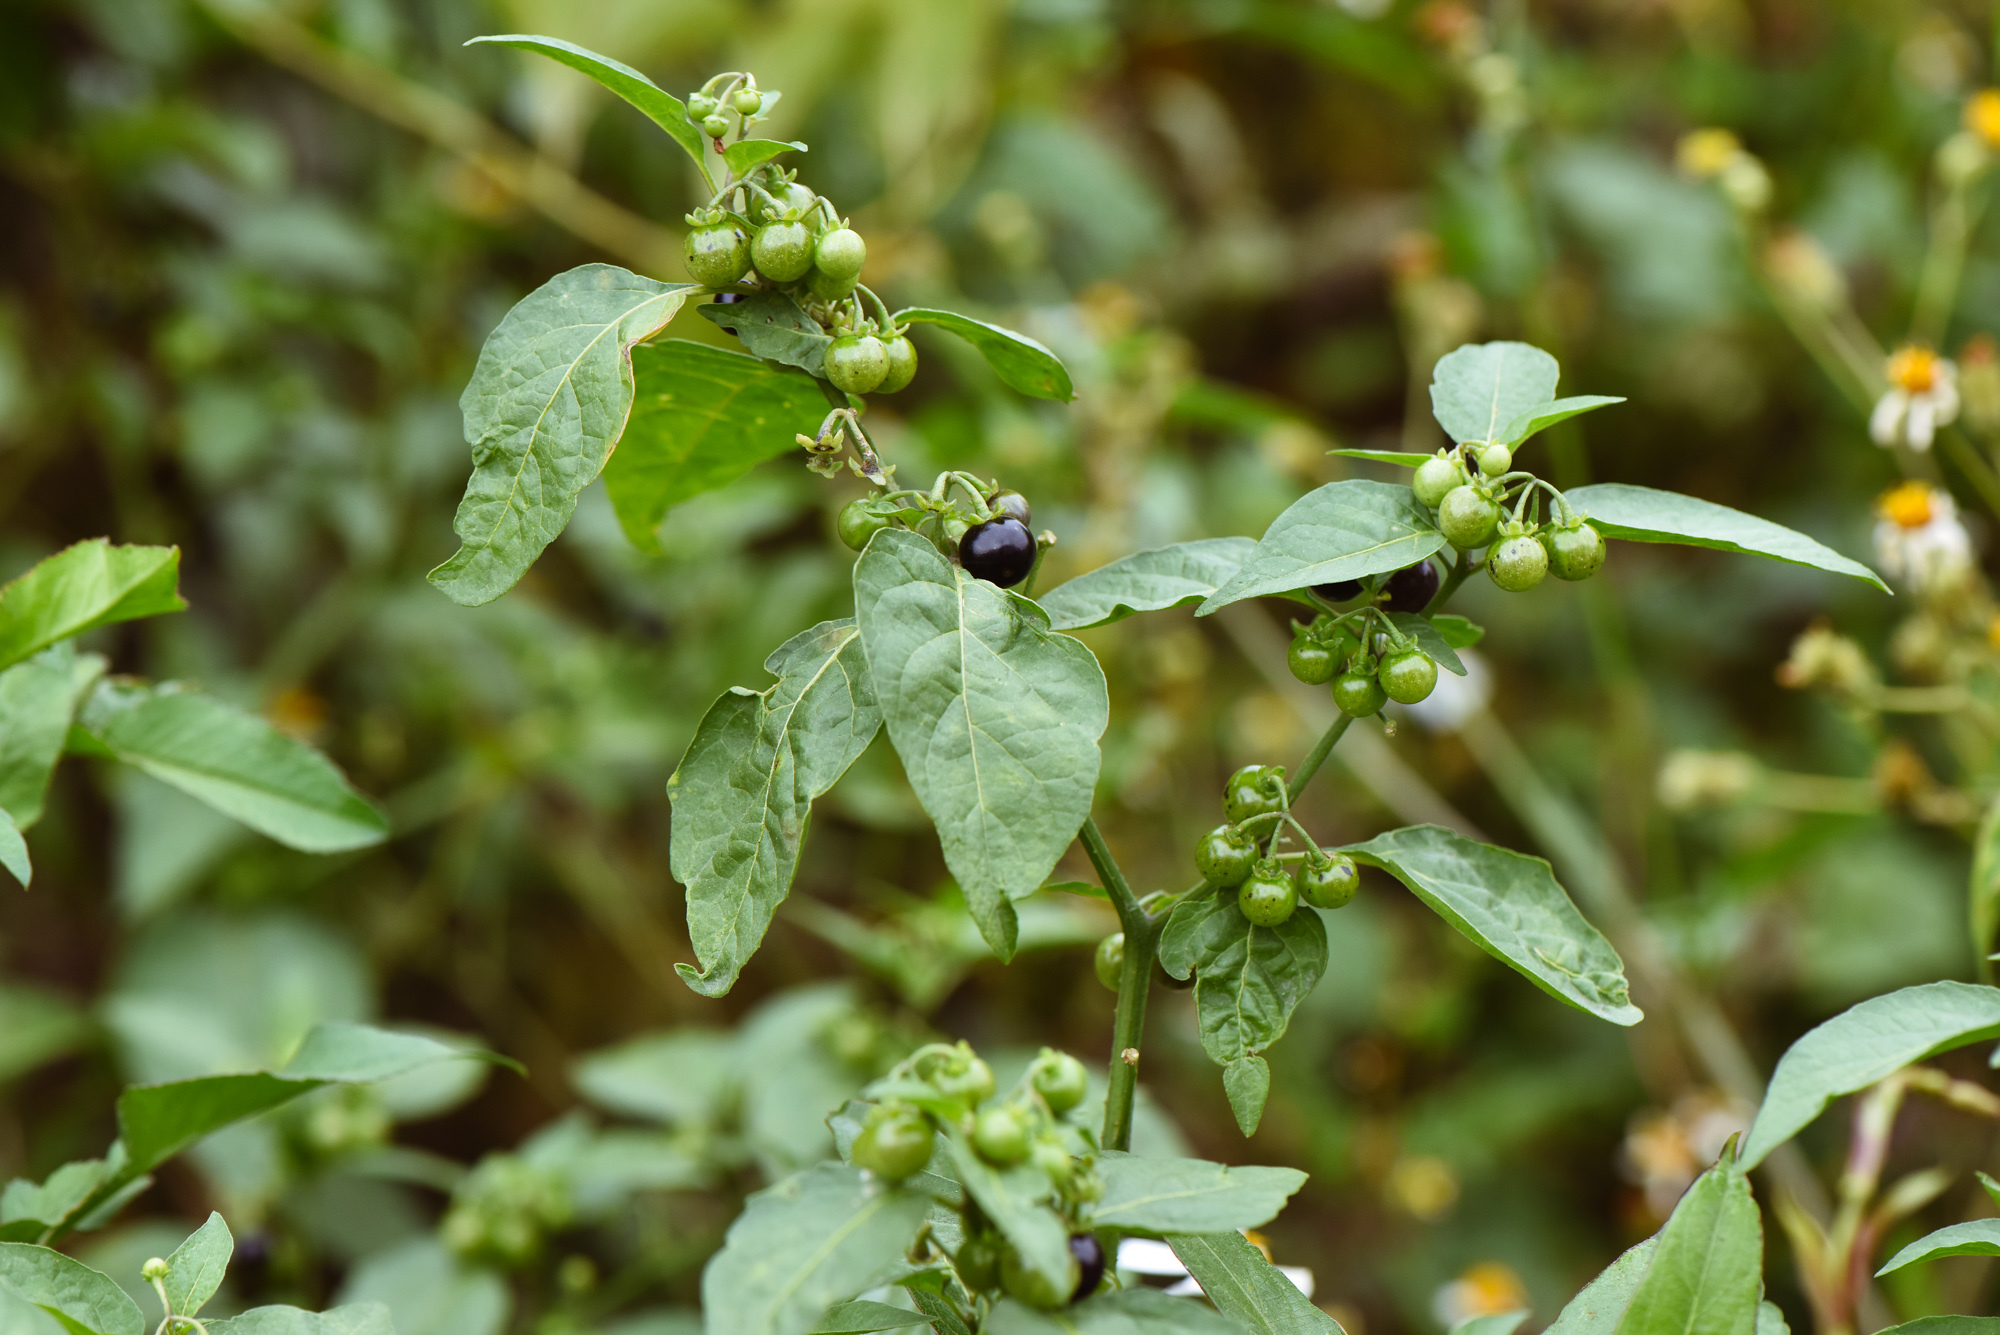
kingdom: Plantae
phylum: Tracheophyta
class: Magnoliopsida
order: Solanales
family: Solanaceae
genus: Solanum
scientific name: Solanum americanum
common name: American black nightshade
